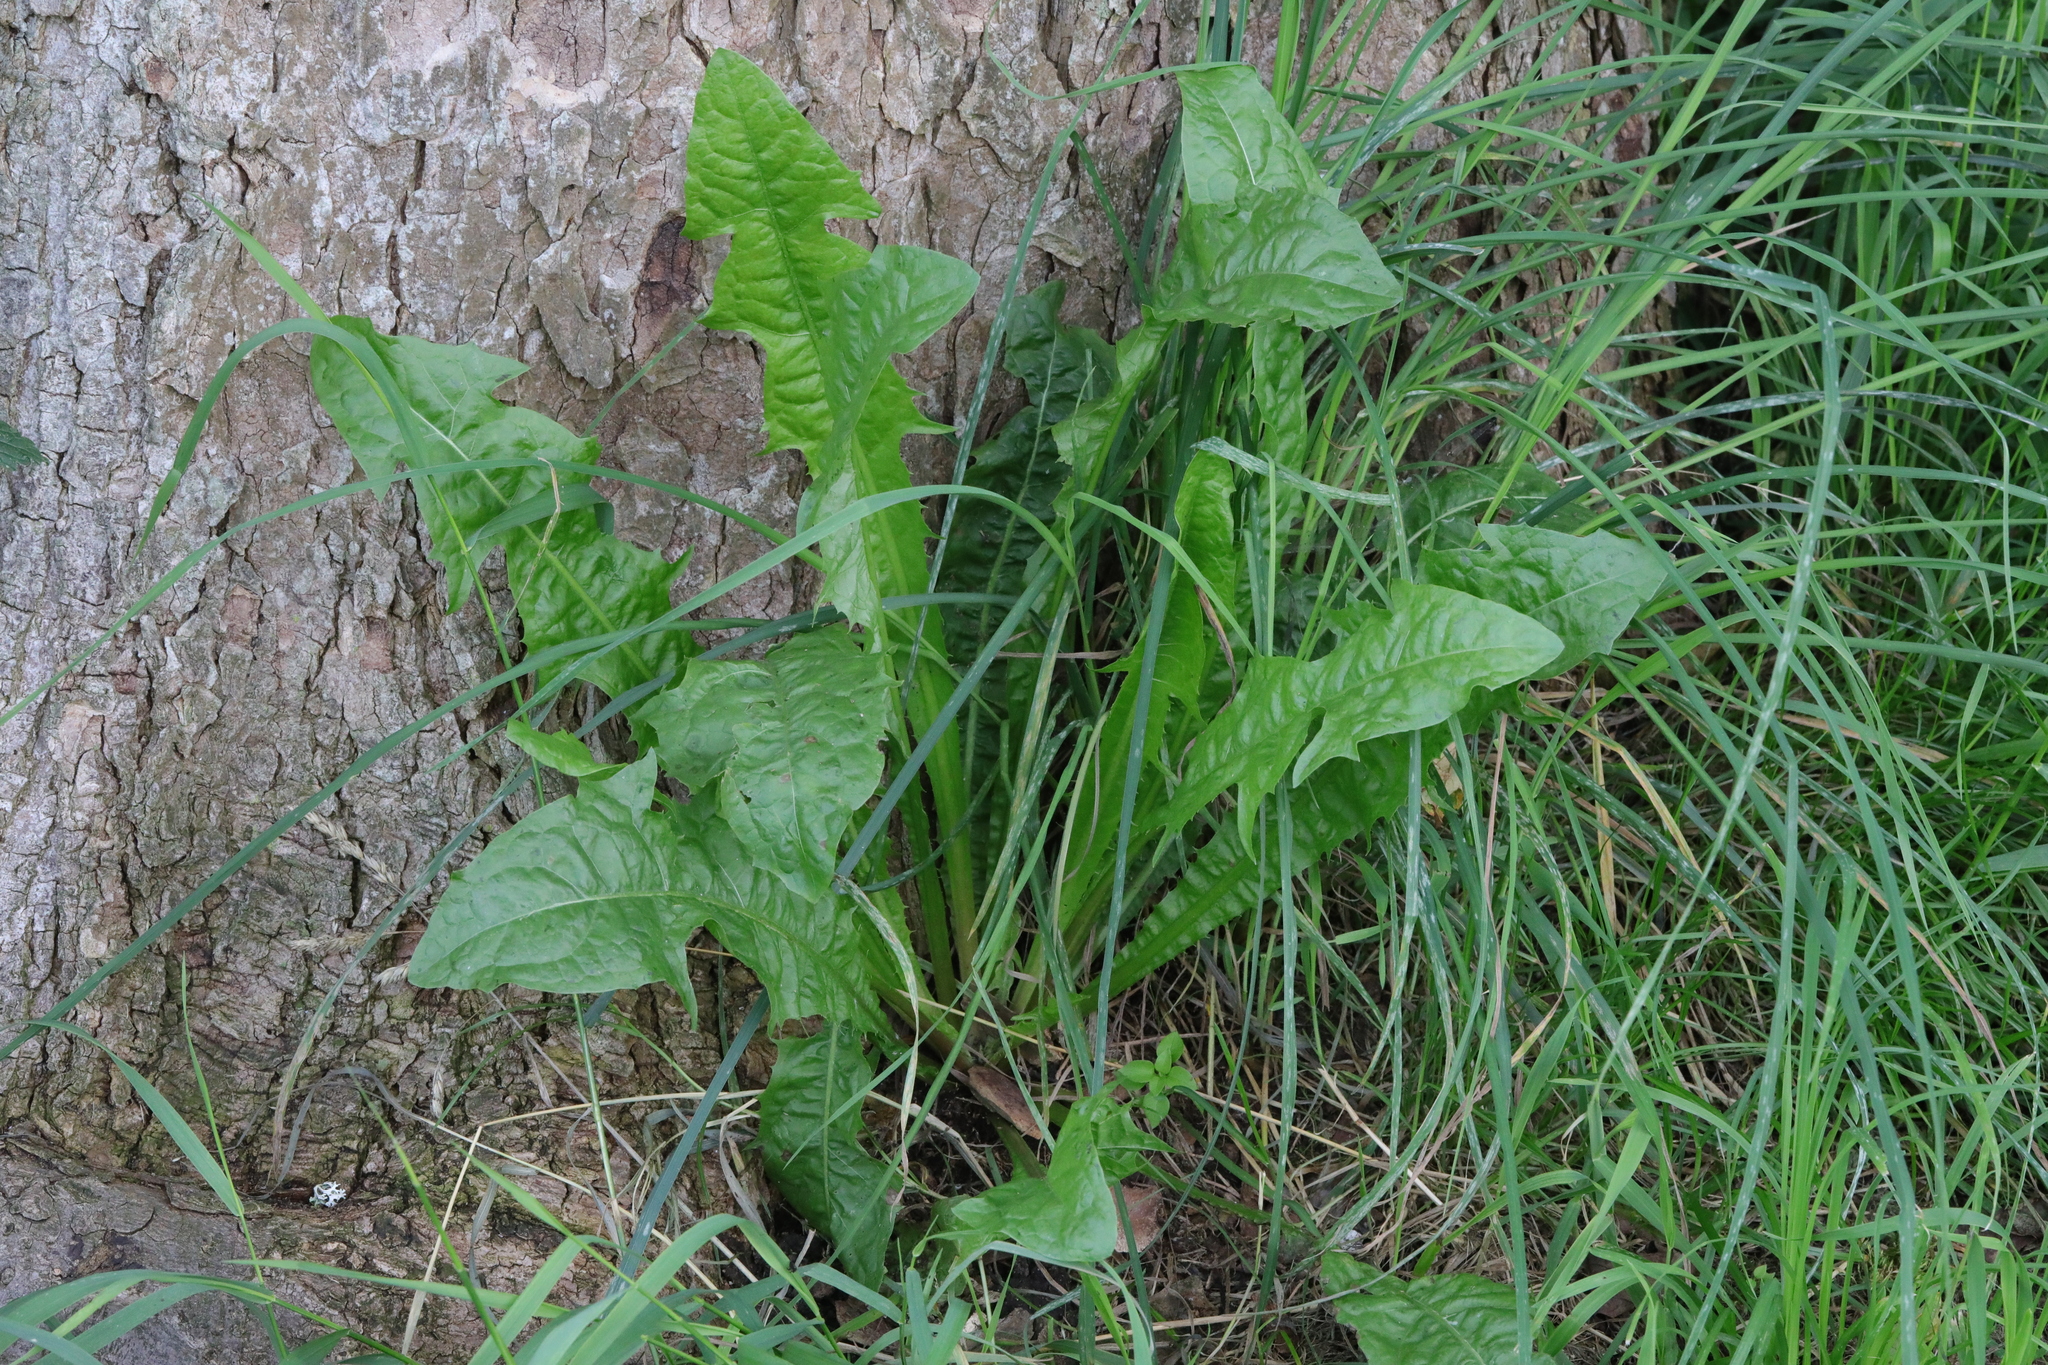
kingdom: Plantae
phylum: Tracheophyta
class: Magnoliopsida
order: Asterales
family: Asteraceae
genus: Taraxacum
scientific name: Taraxacum officinale
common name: Common dandelion
